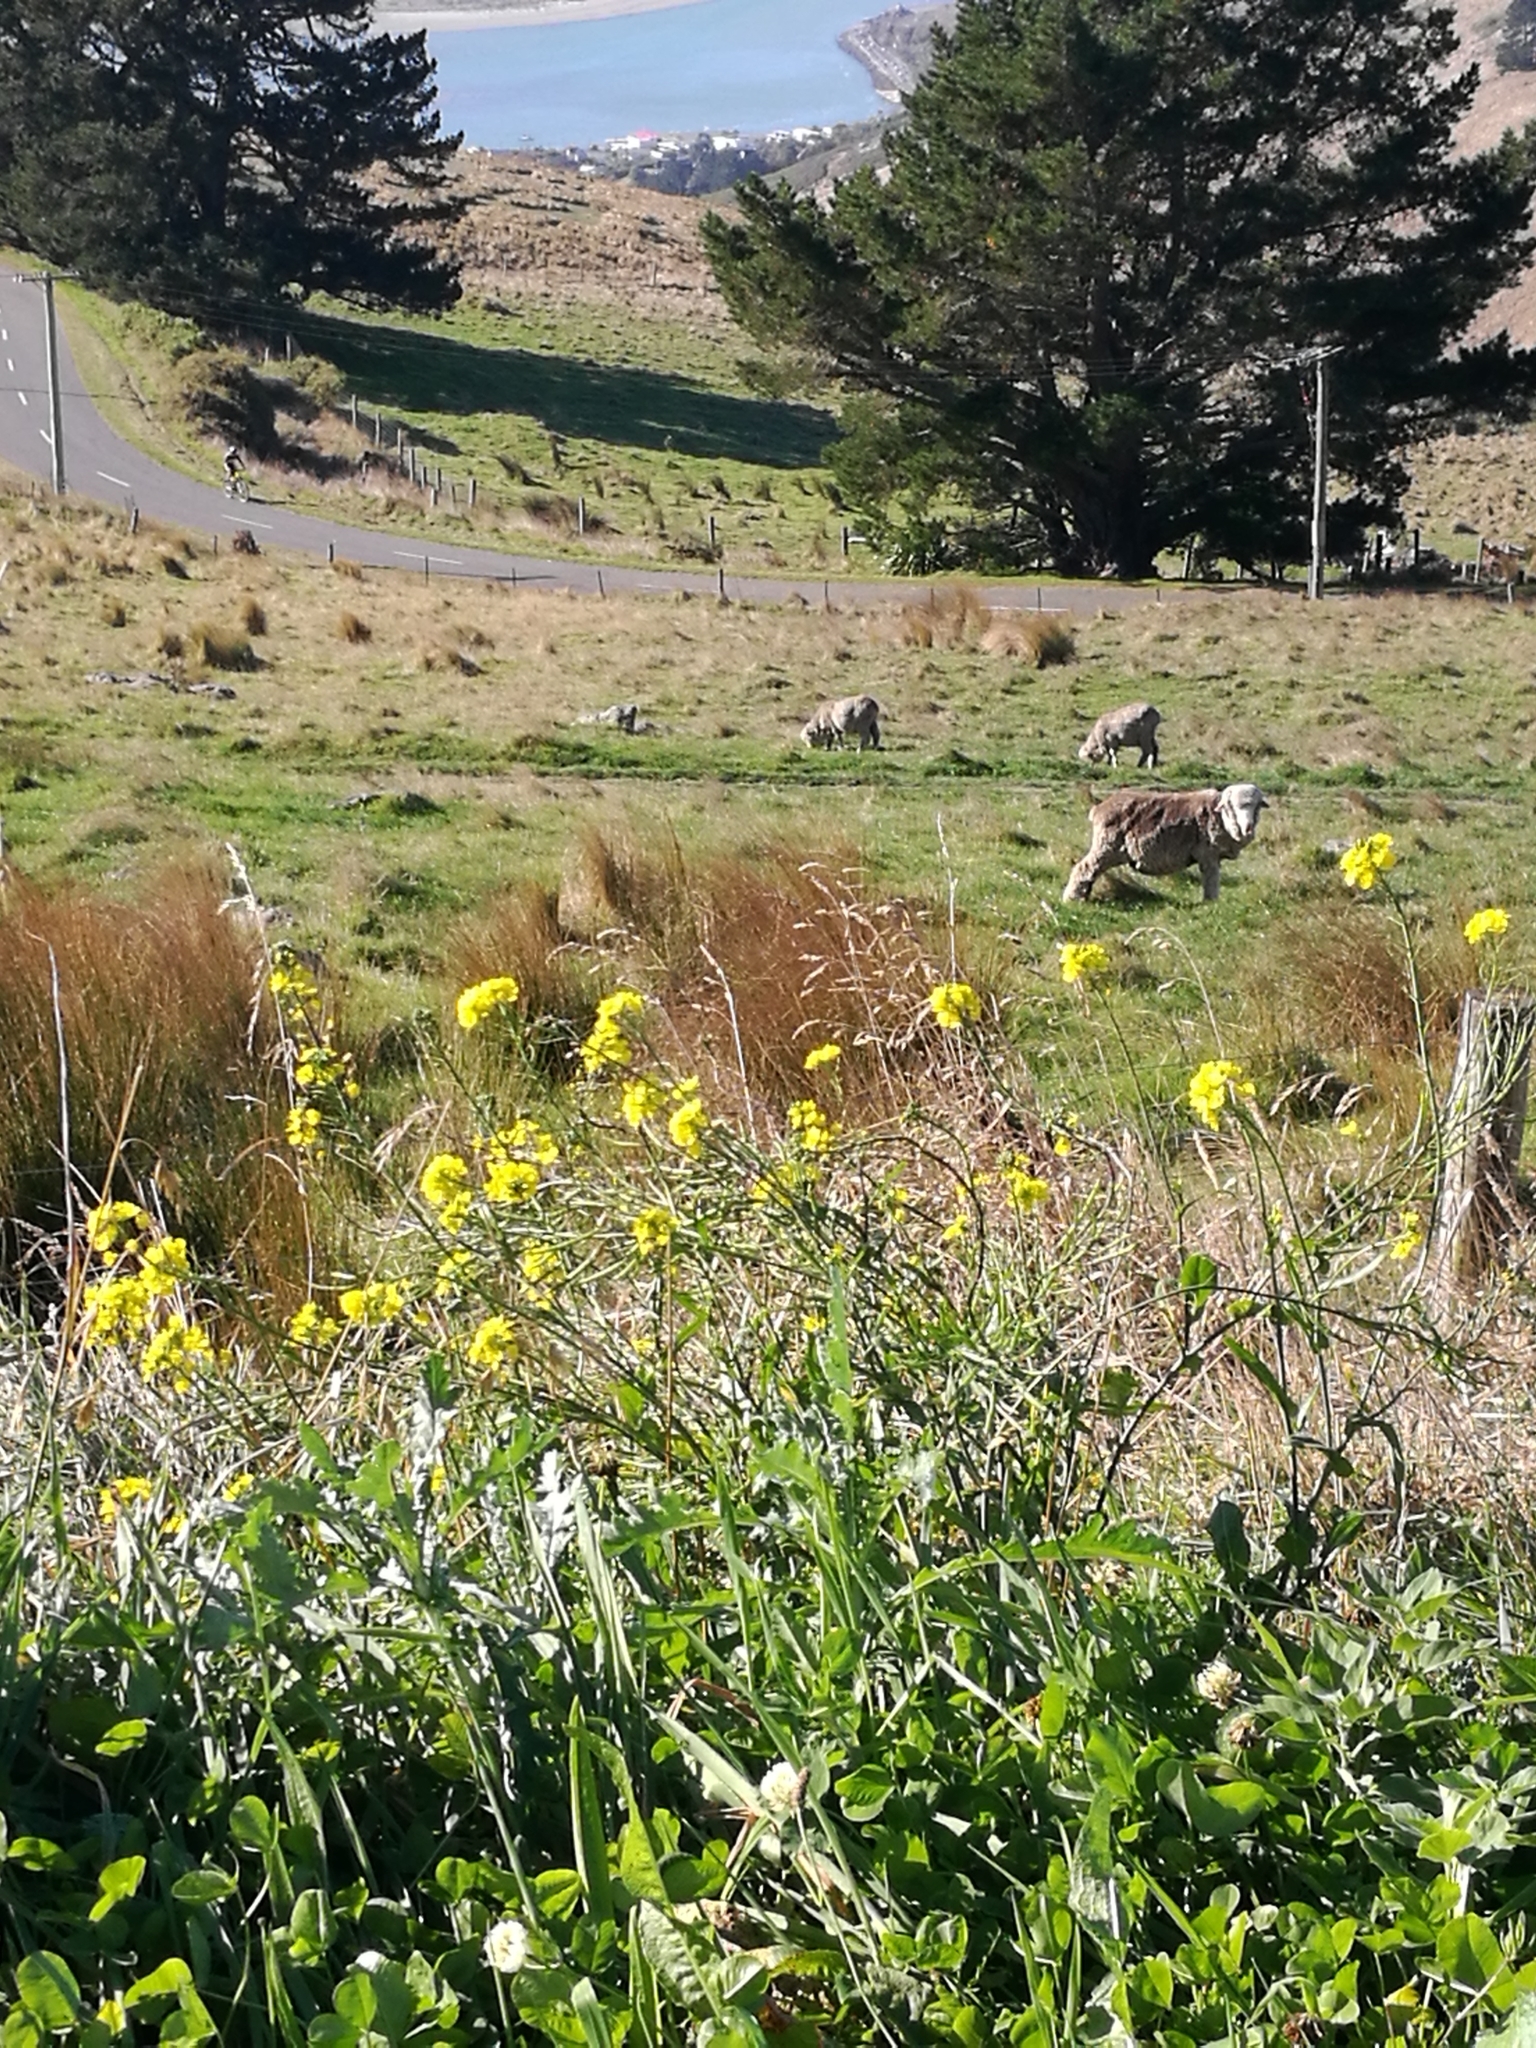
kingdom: Plantae
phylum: Tracheophyta
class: Magnoliopsida
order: Brassicales
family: Brassicaceae
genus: Brassica
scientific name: Brassica oleracea
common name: Cabbage
